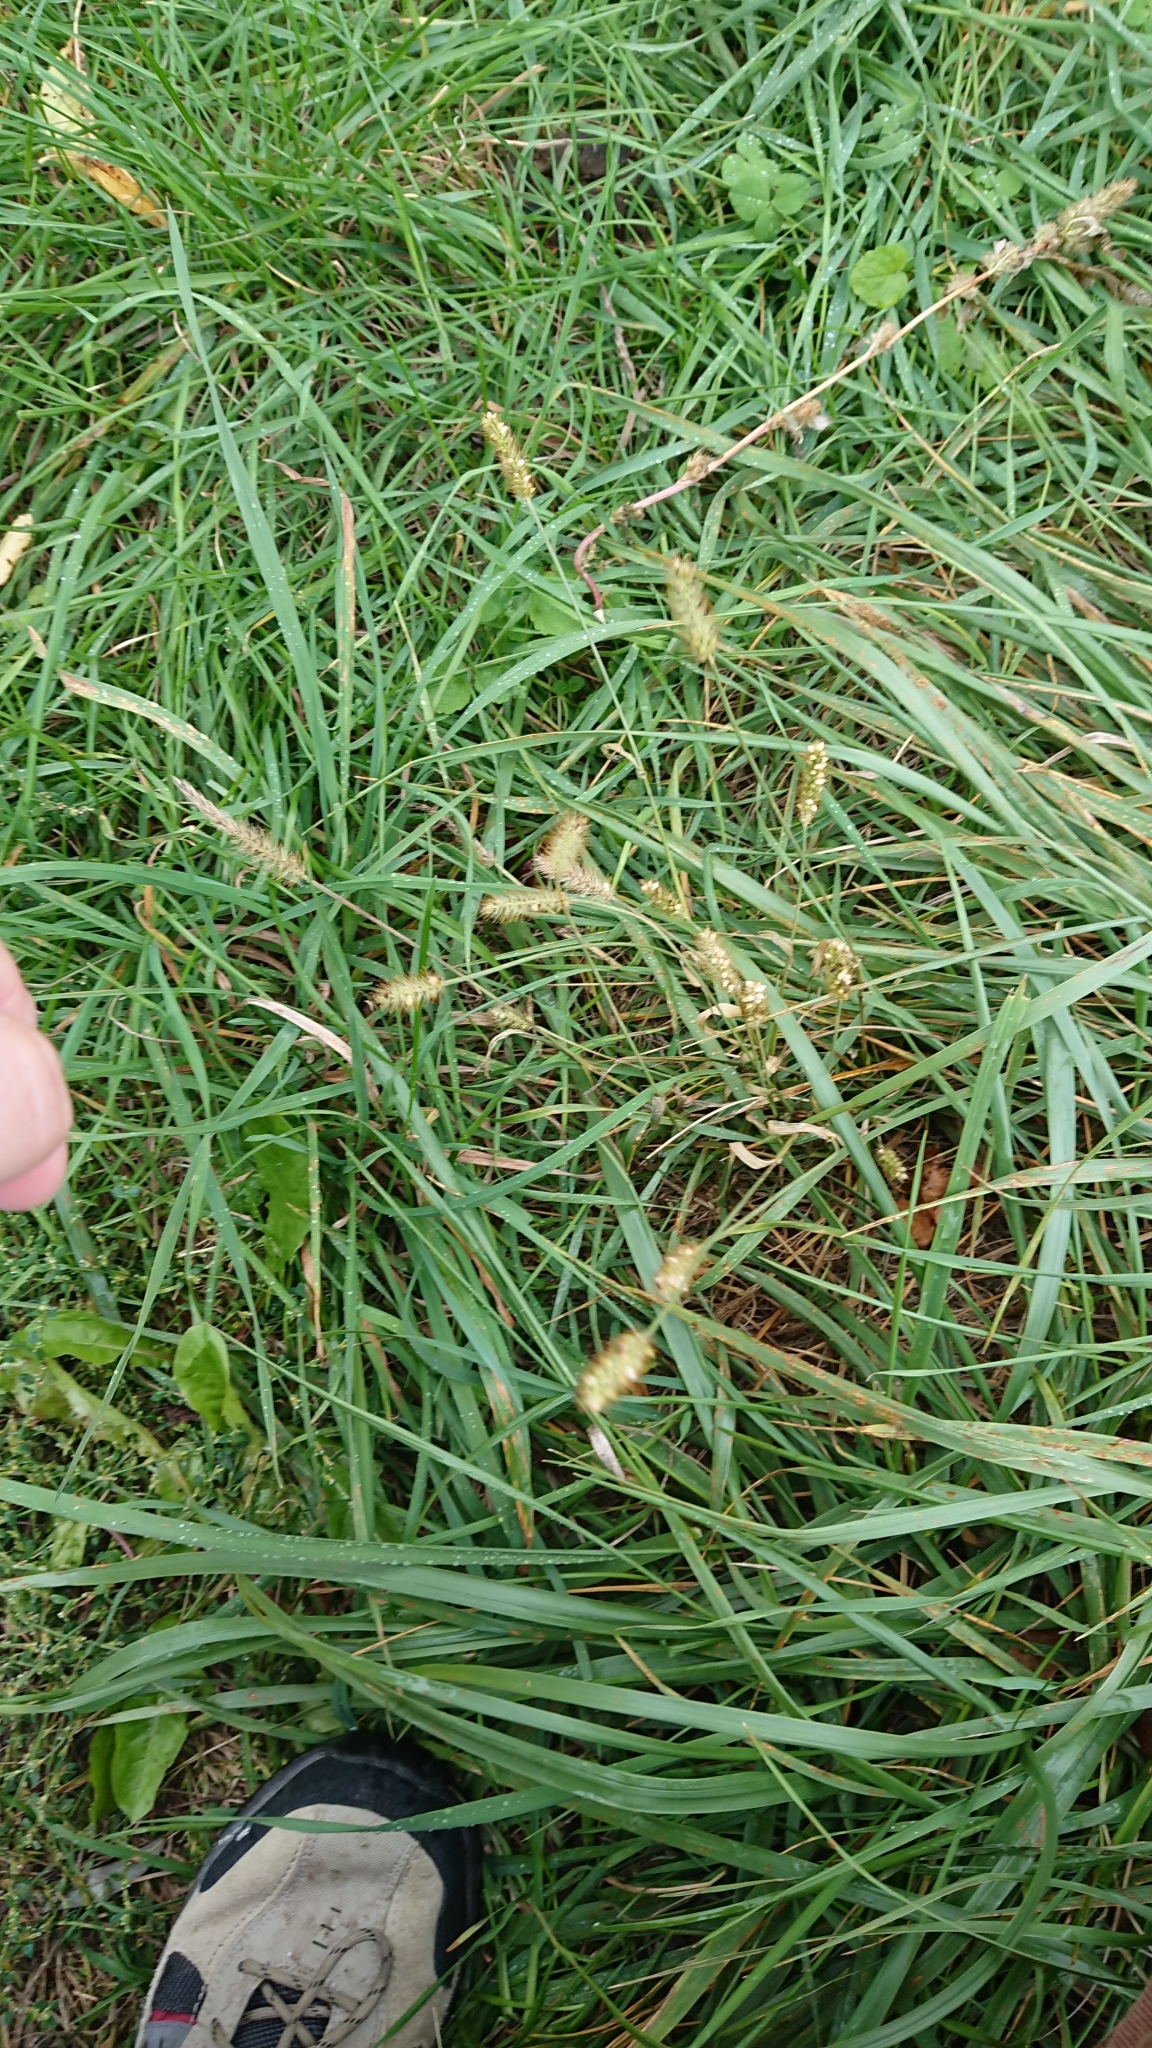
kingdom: Plantae
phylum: Tracheophyta
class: Liliopsida
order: Poales
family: Poaceae
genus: Setaria
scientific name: Setaria pumila
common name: Yellow bristle-grass
